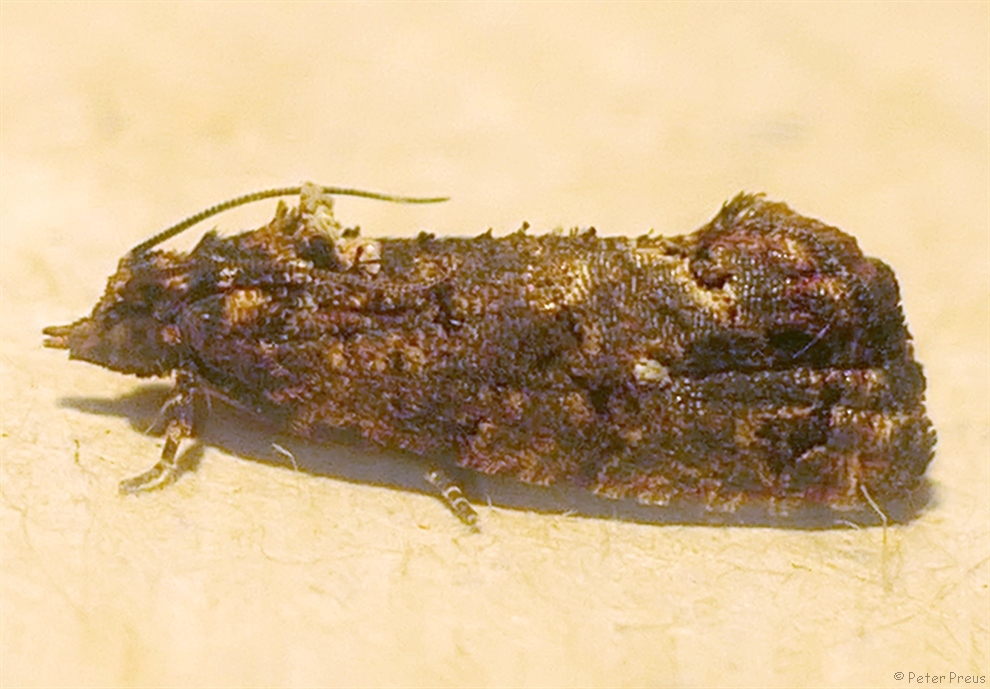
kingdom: Animalia
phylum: Arthropoda
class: Insecta
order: Lepidoptera
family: Tortricidae
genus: Thaumatotibia
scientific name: Thaumatotibia leucotreta
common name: False codling moth
